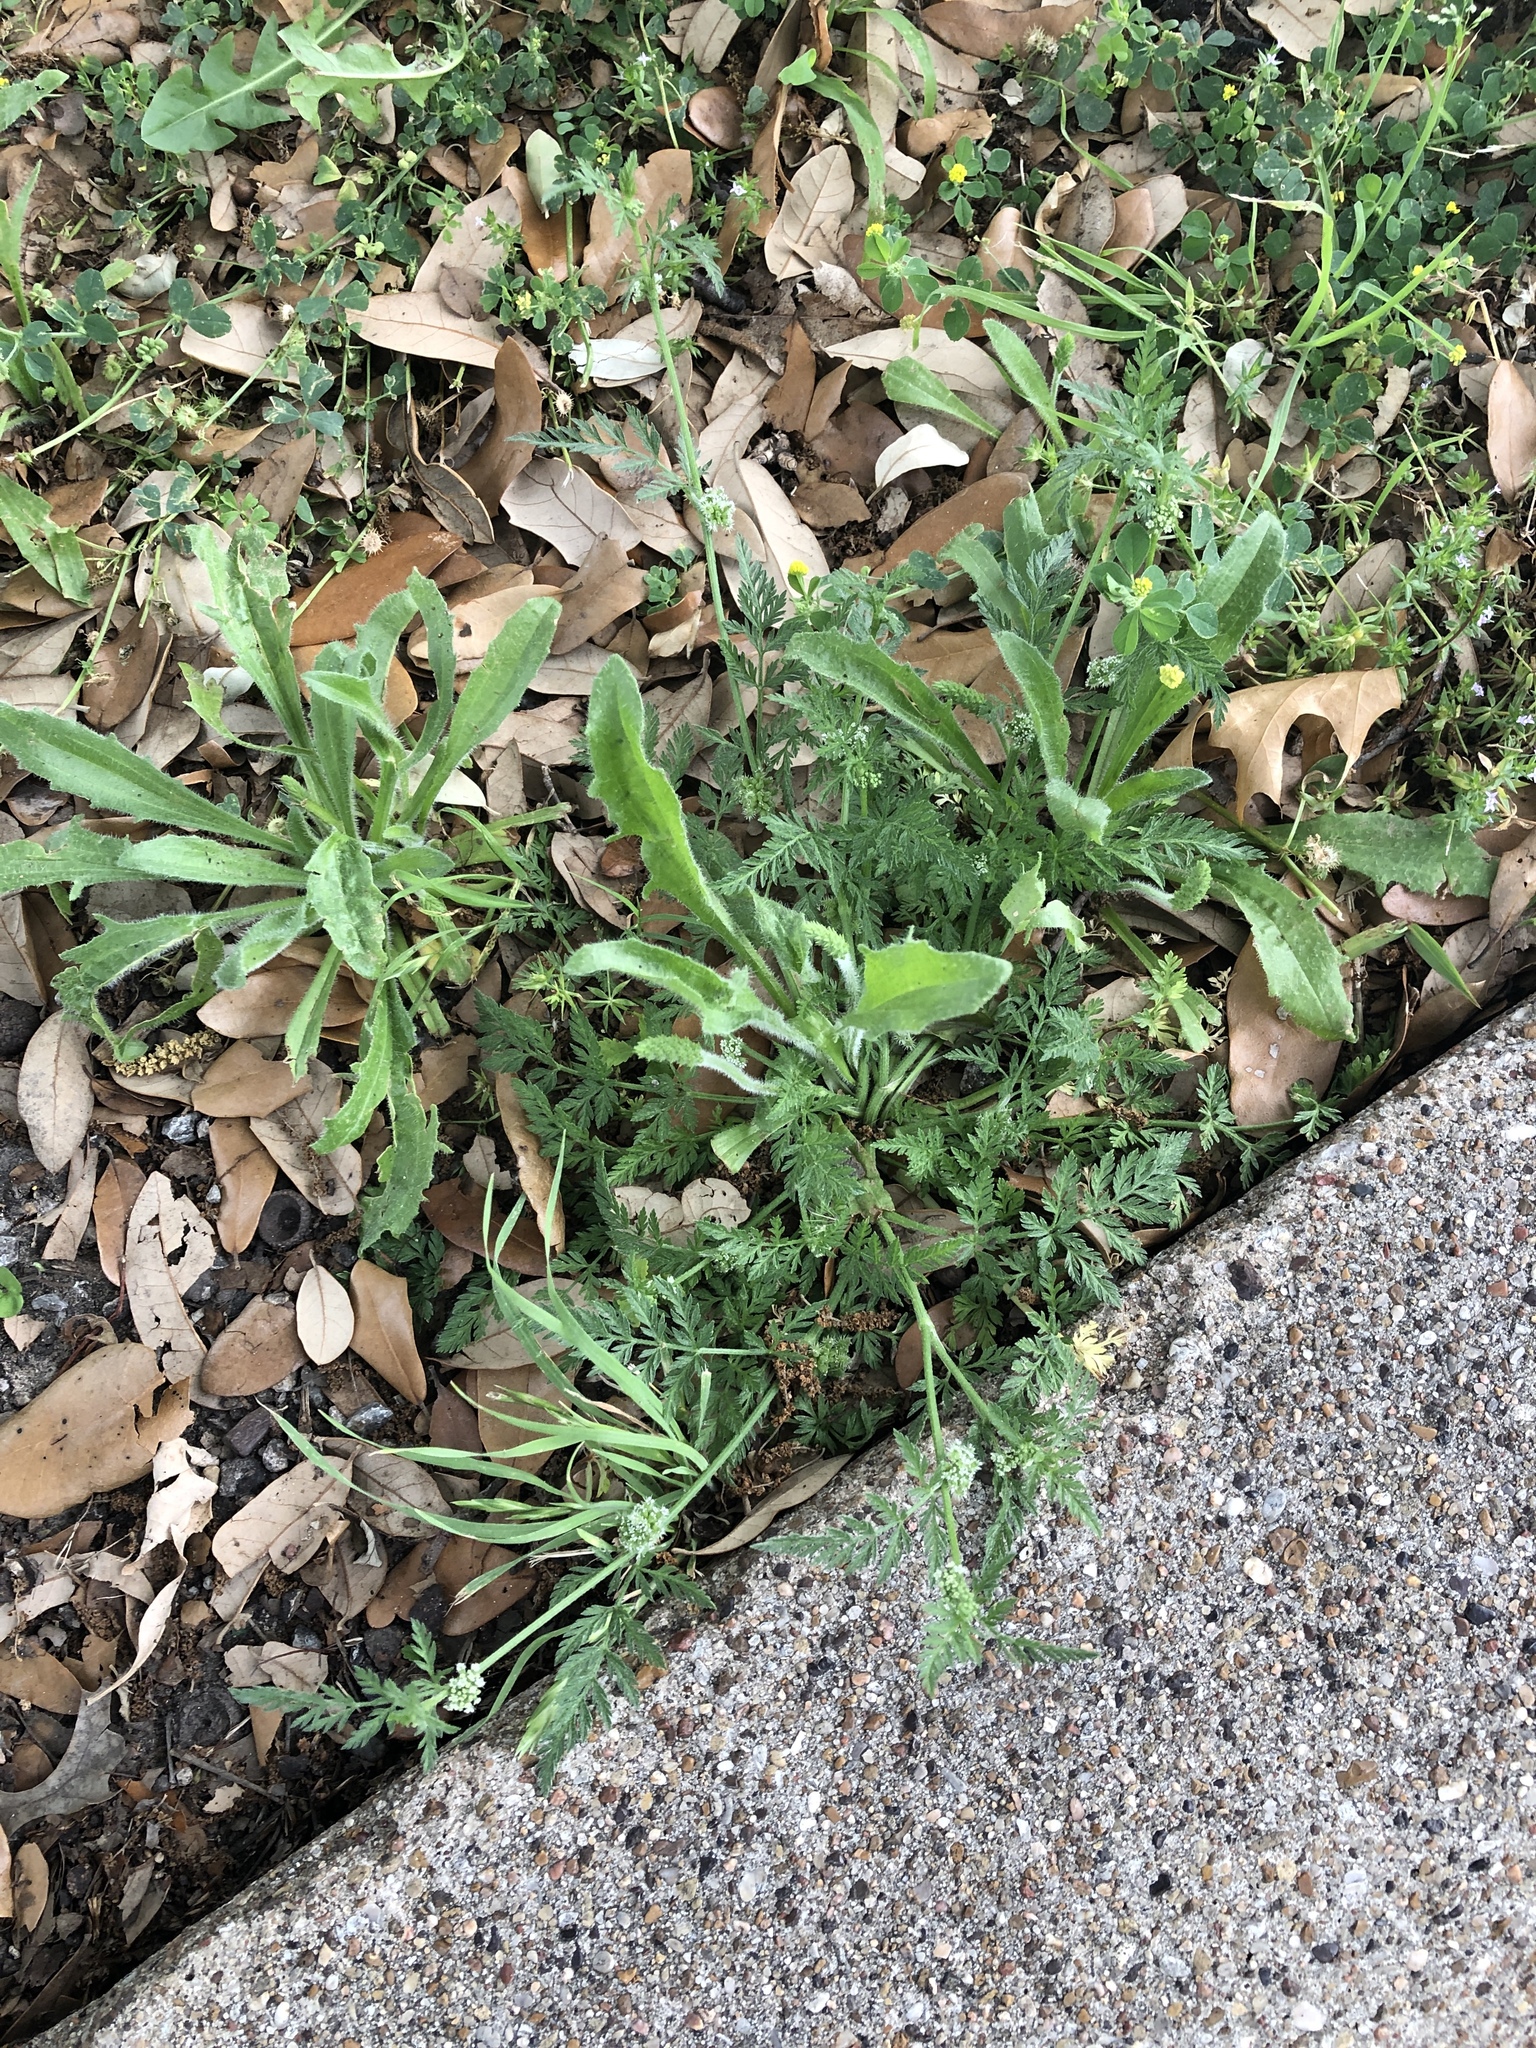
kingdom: Plantae
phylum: Tracheophyta
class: Magnoliopsida
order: Apiales
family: Apiaceae
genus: Torilis
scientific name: Torilis nodosa
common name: Knotted hedge-parsley
